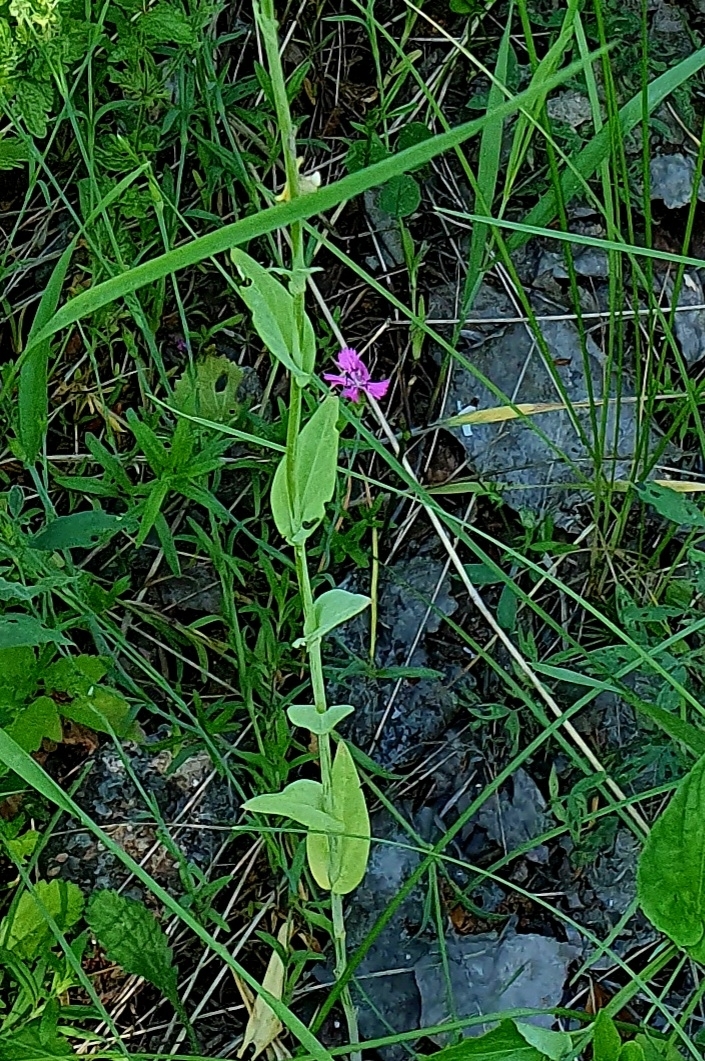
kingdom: Plantae
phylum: Tracheophyta
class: Magnoliopsida
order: Brassicales
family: Brassicaceae
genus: Turritis
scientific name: Turritis glabra
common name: Tower rockcress
